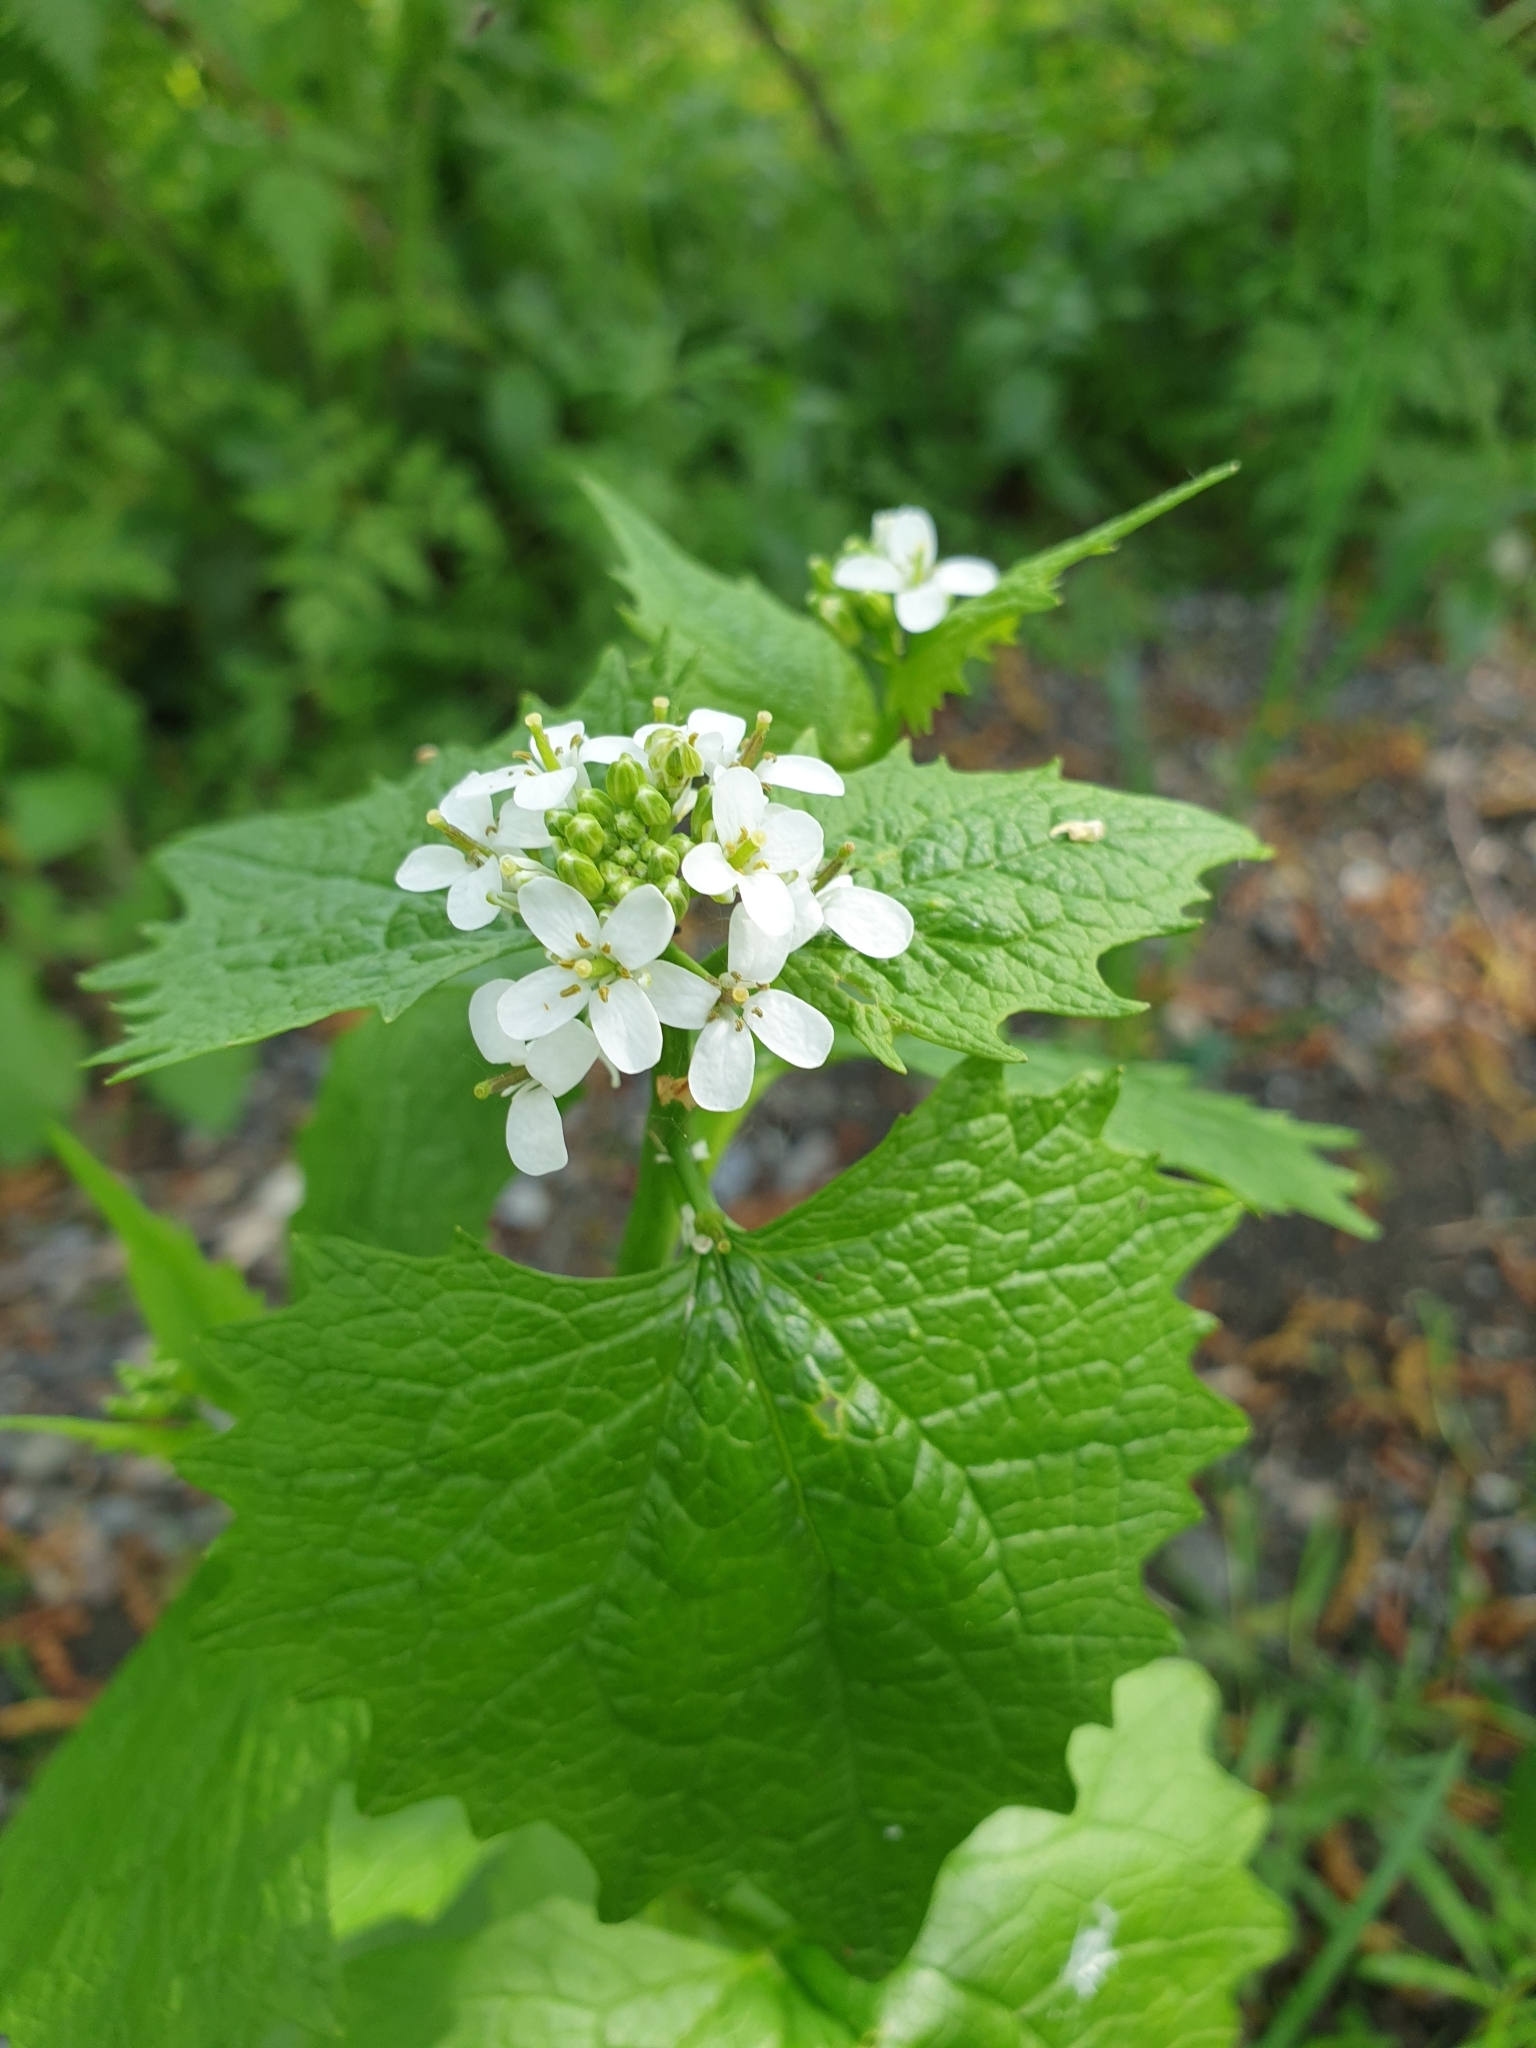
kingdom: Plantae
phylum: Tracheophyta
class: Magnoliopsida
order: Brassicales
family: Brassicaceae
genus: Alliaria
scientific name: Alliaria petiolata
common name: Garlic mustard
